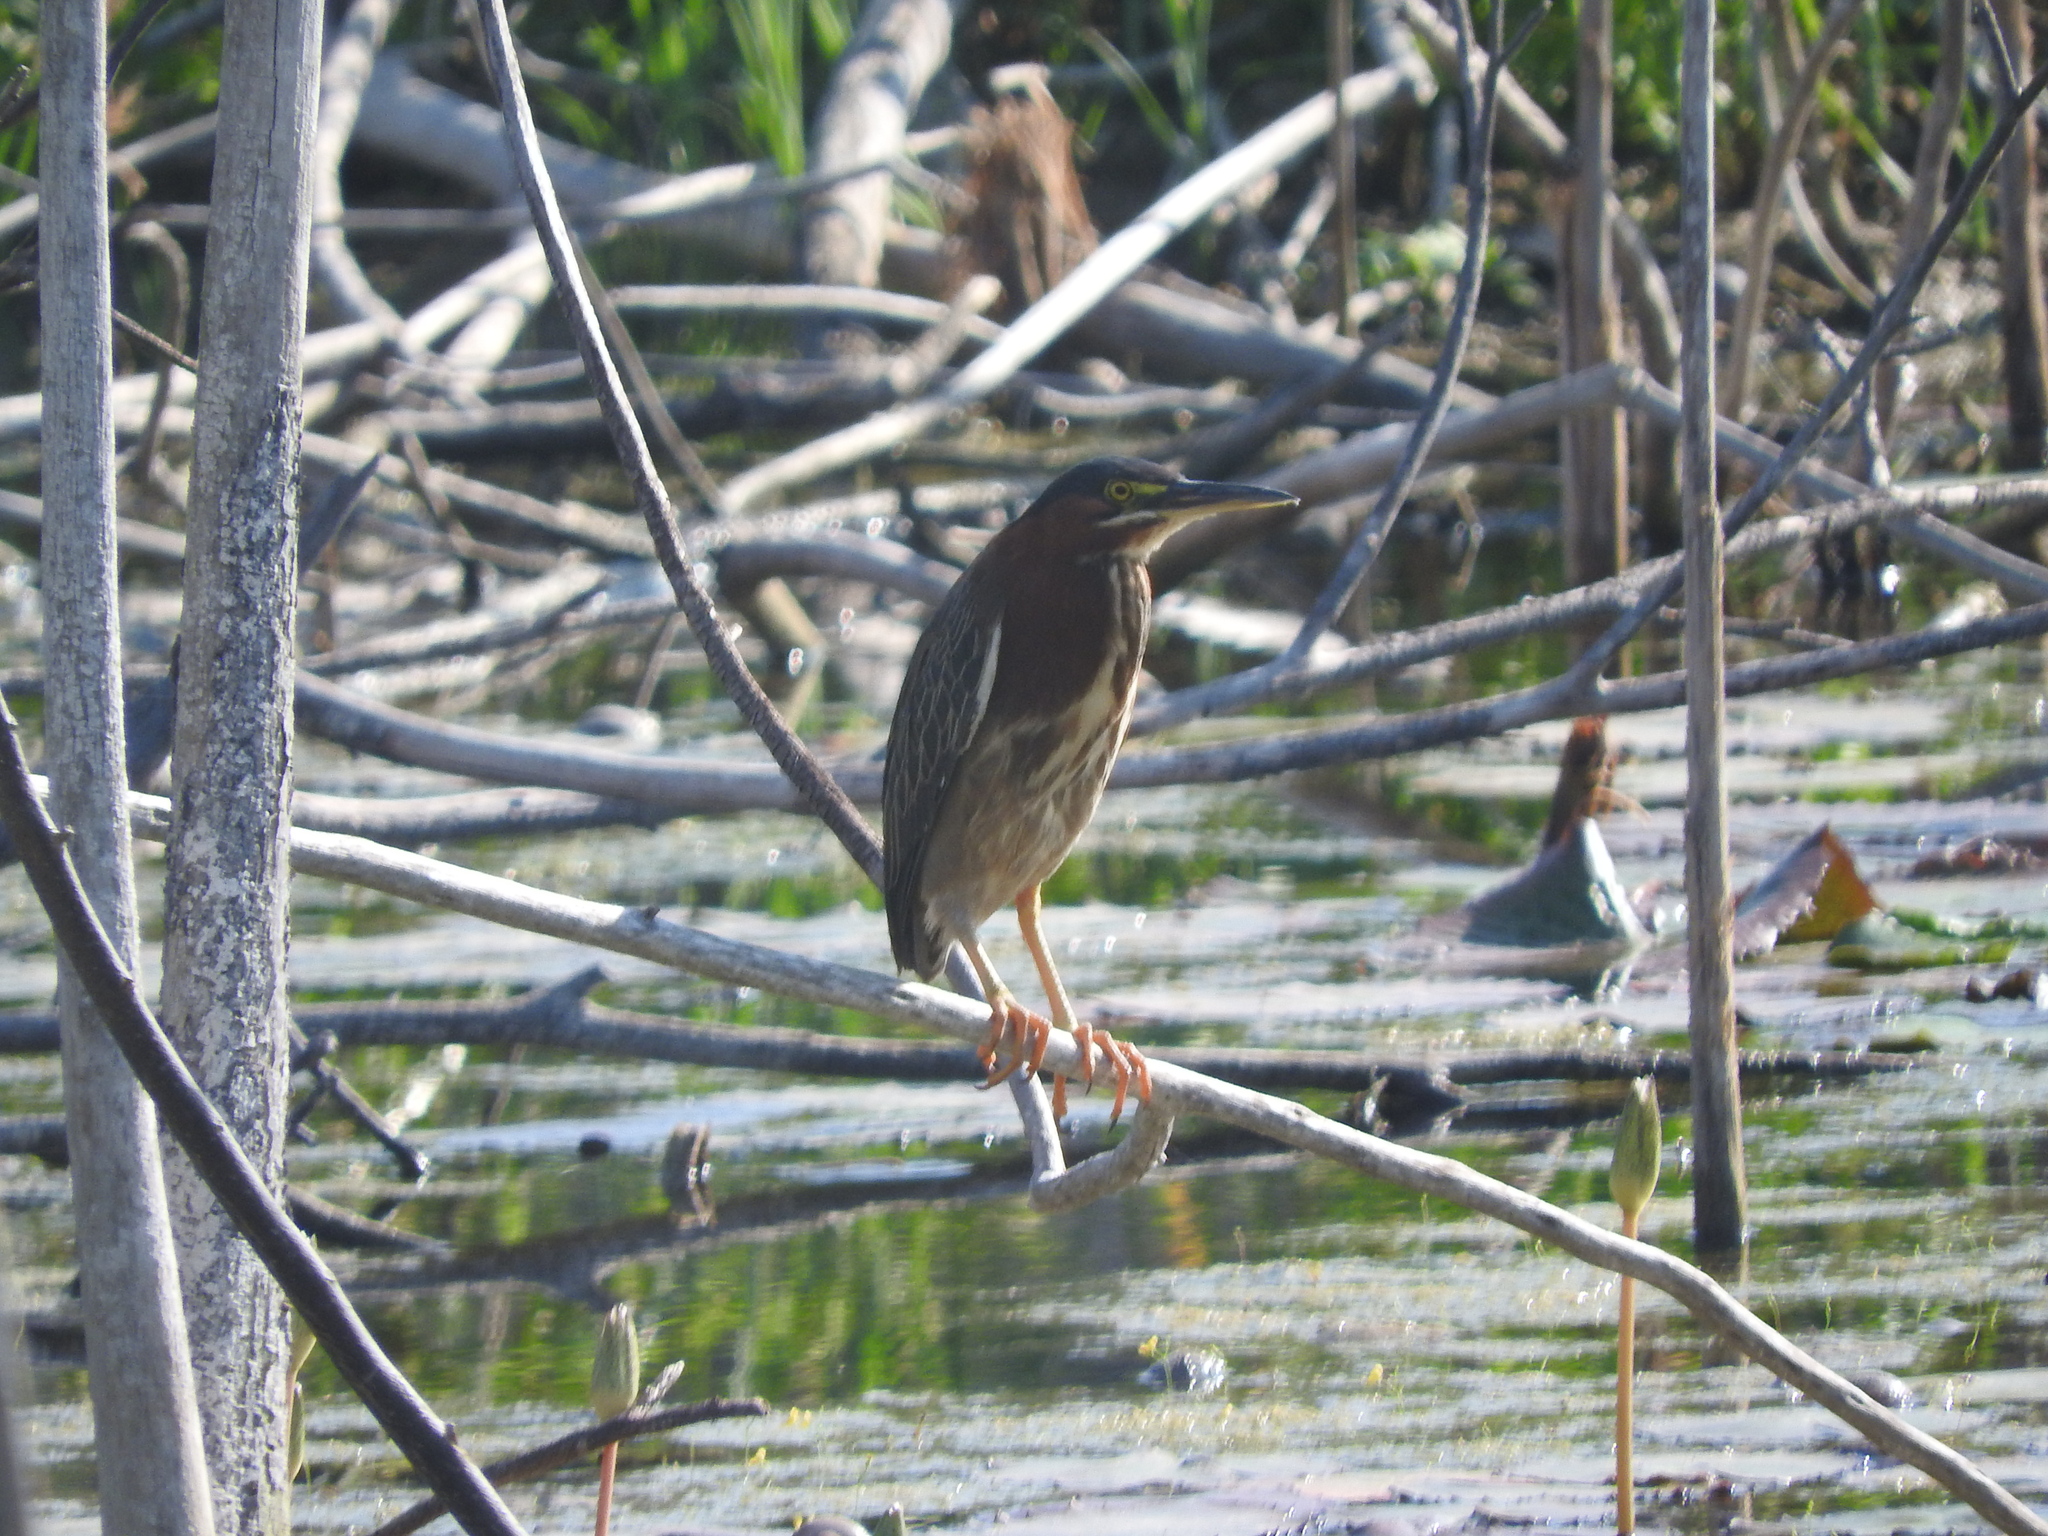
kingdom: Animalia
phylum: Chordata
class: Aves
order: Pelecaniformes
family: Ardeidae
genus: Butorides
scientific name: Butorides virescens
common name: Green heron
